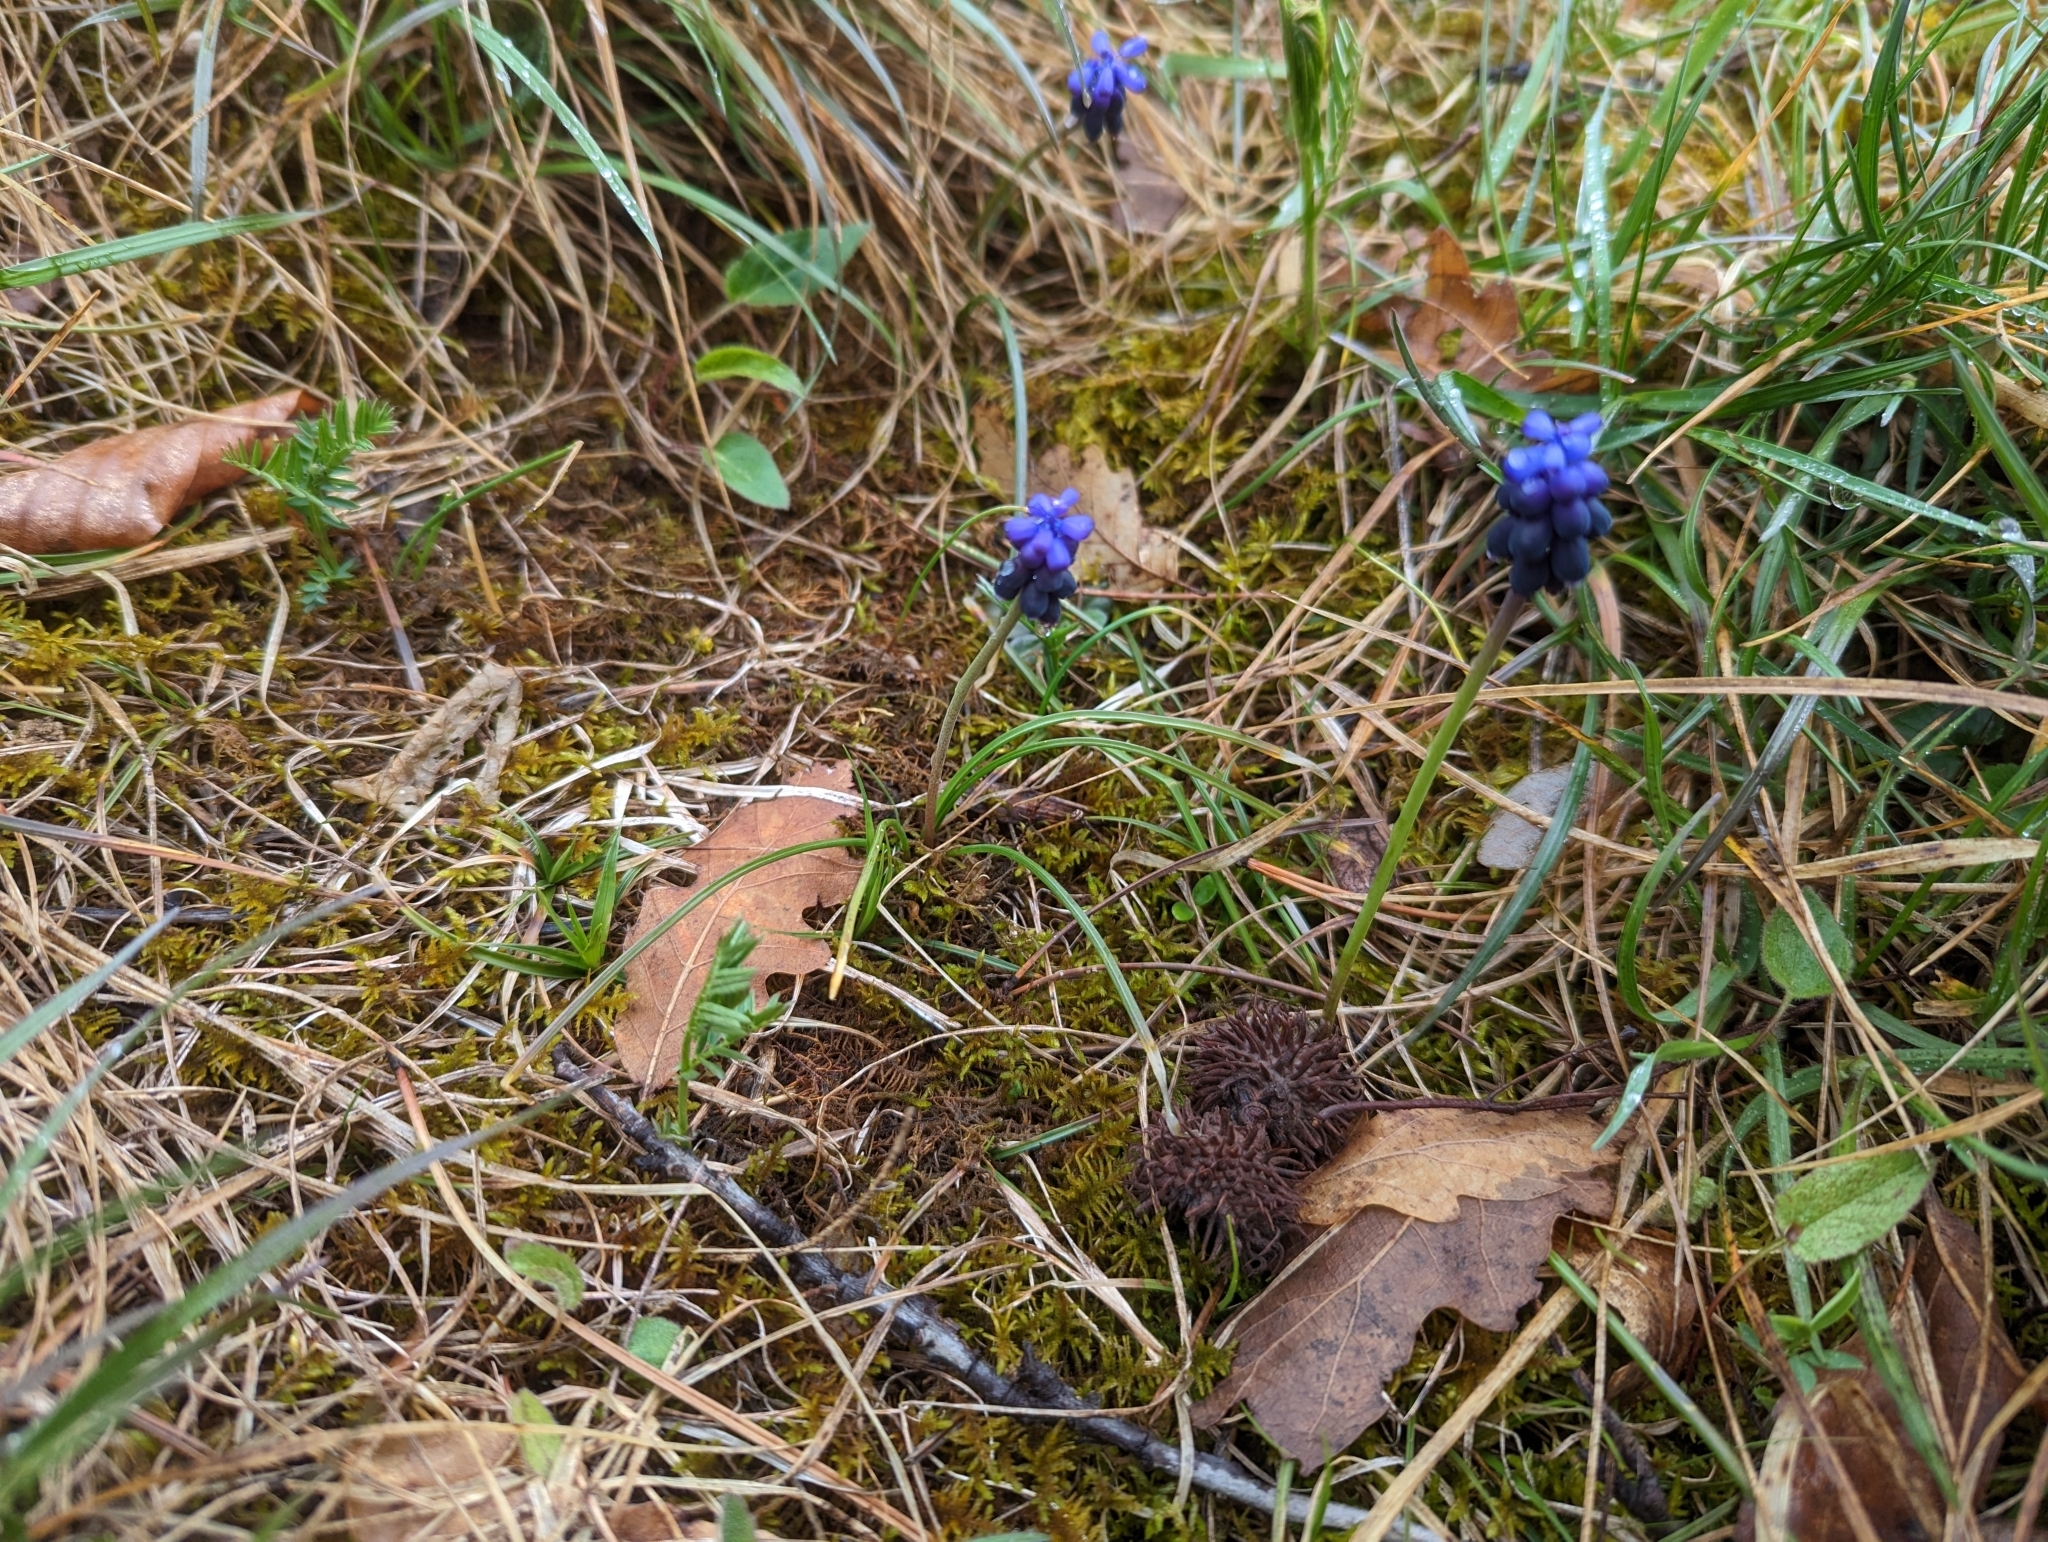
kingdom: Plantae
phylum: Tracheophyta
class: Liliopsida
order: Asparagales
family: Asparagaceae
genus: Muscari
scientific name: Muscari neglectum
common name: Grape-hyacinth
